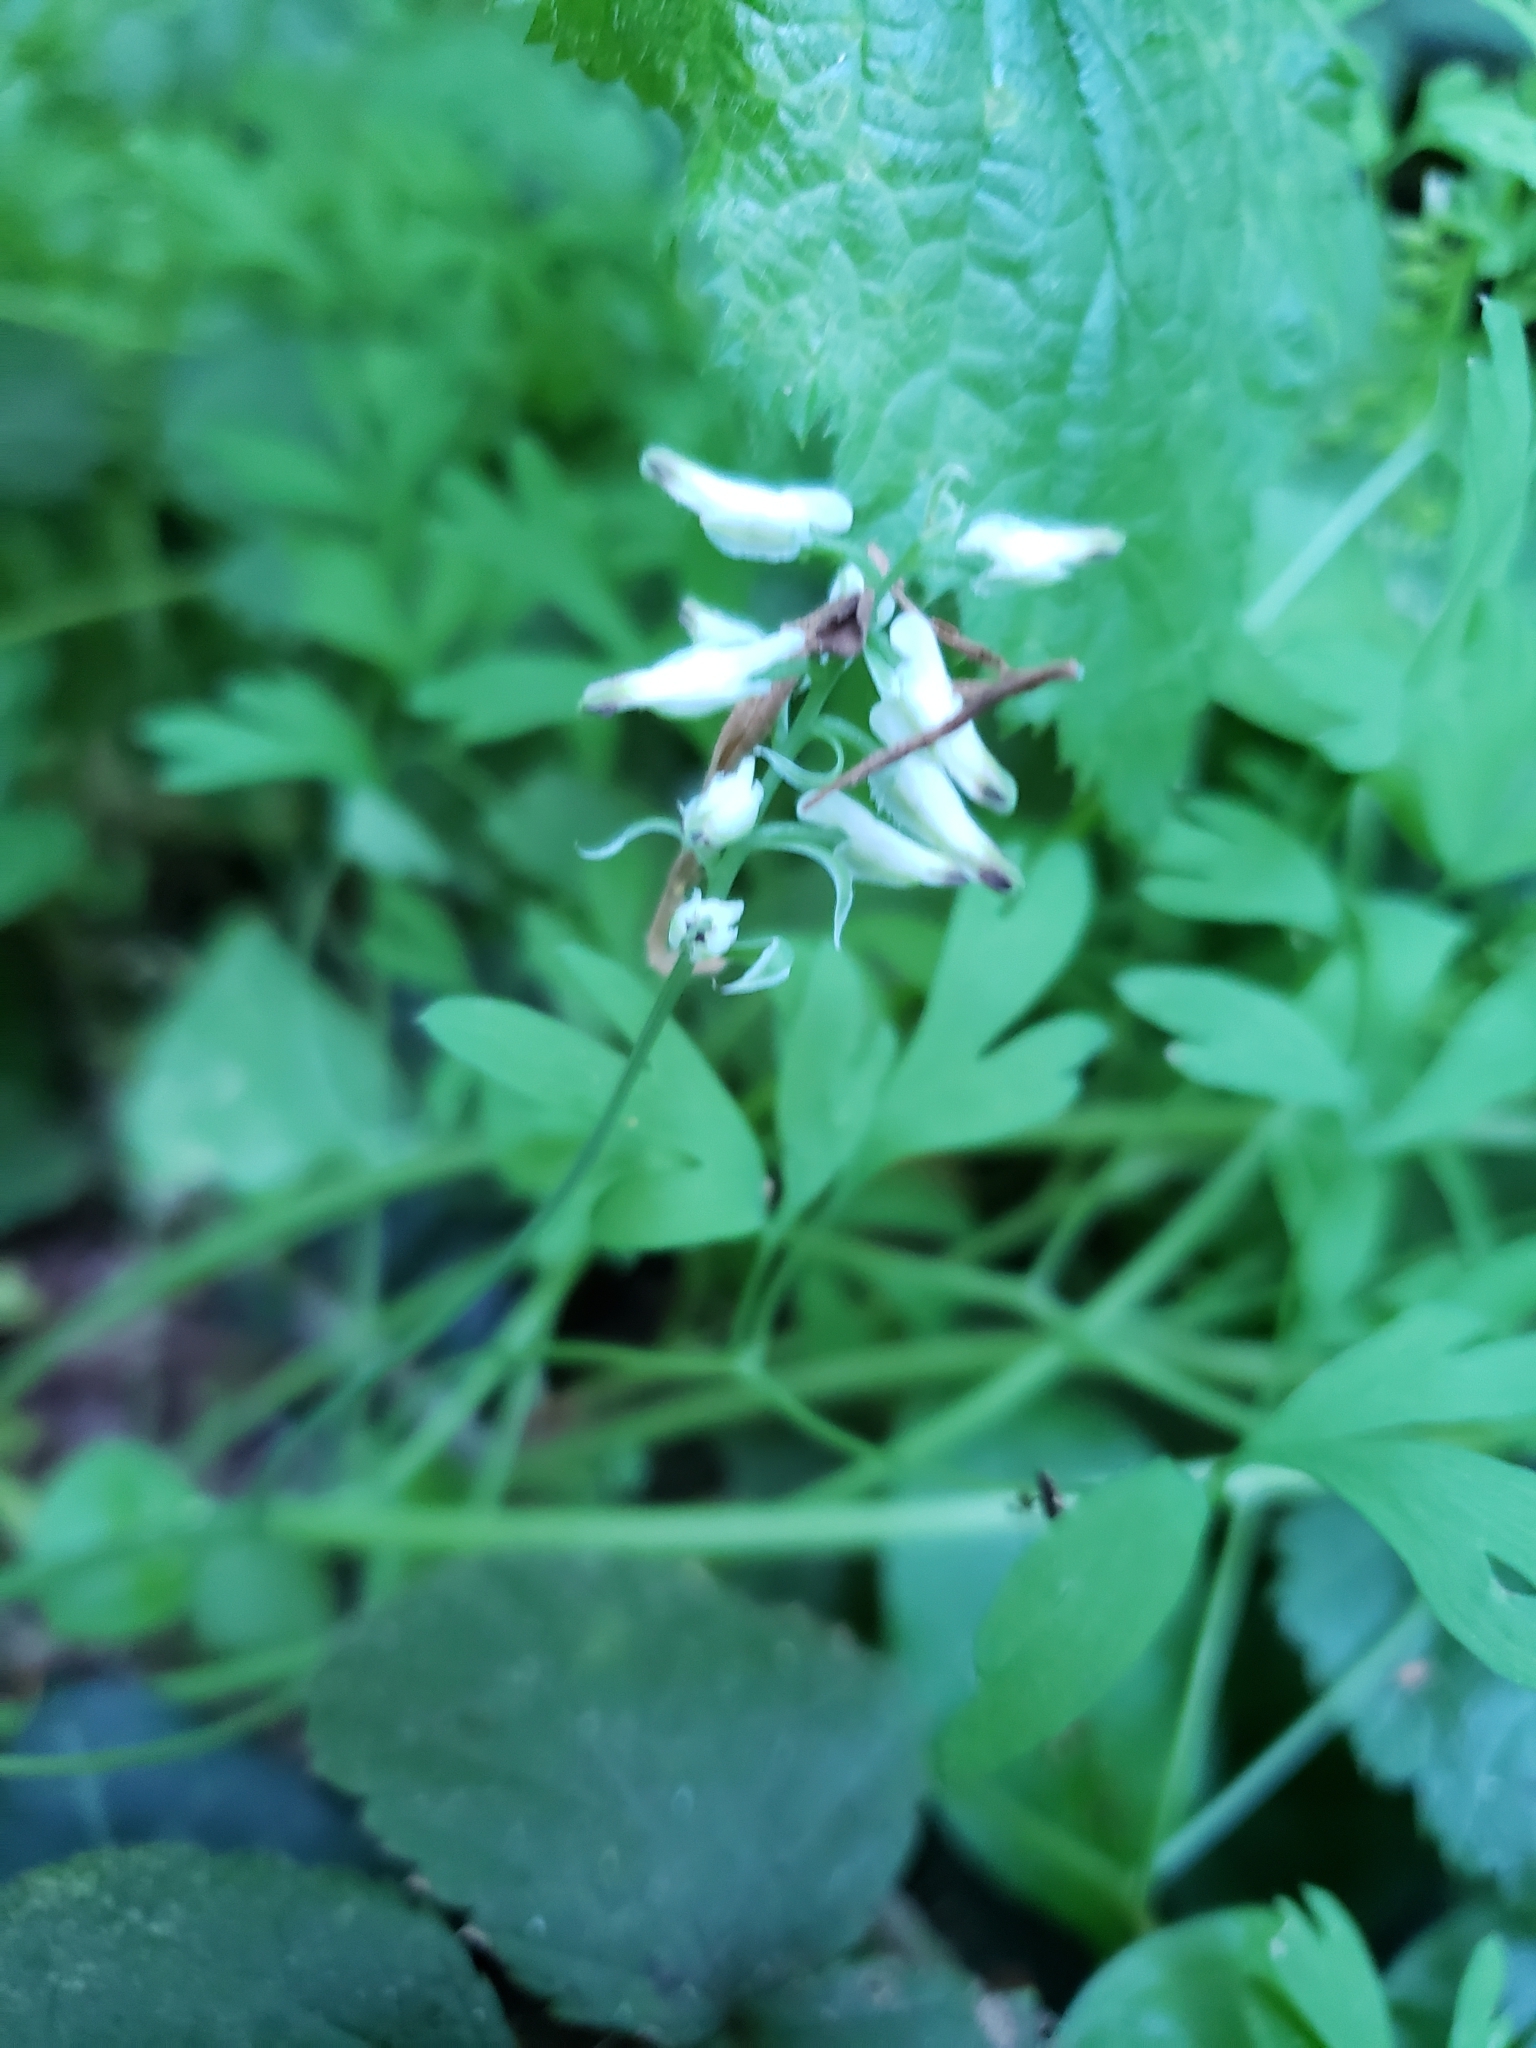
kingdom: Plantae
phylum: Tracheophyta
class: Magnoliopsida
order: Ranunculales
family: Papaveraceae
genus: Fumaria
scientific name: Fumaria capreolata
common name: White ramping-fumitory
